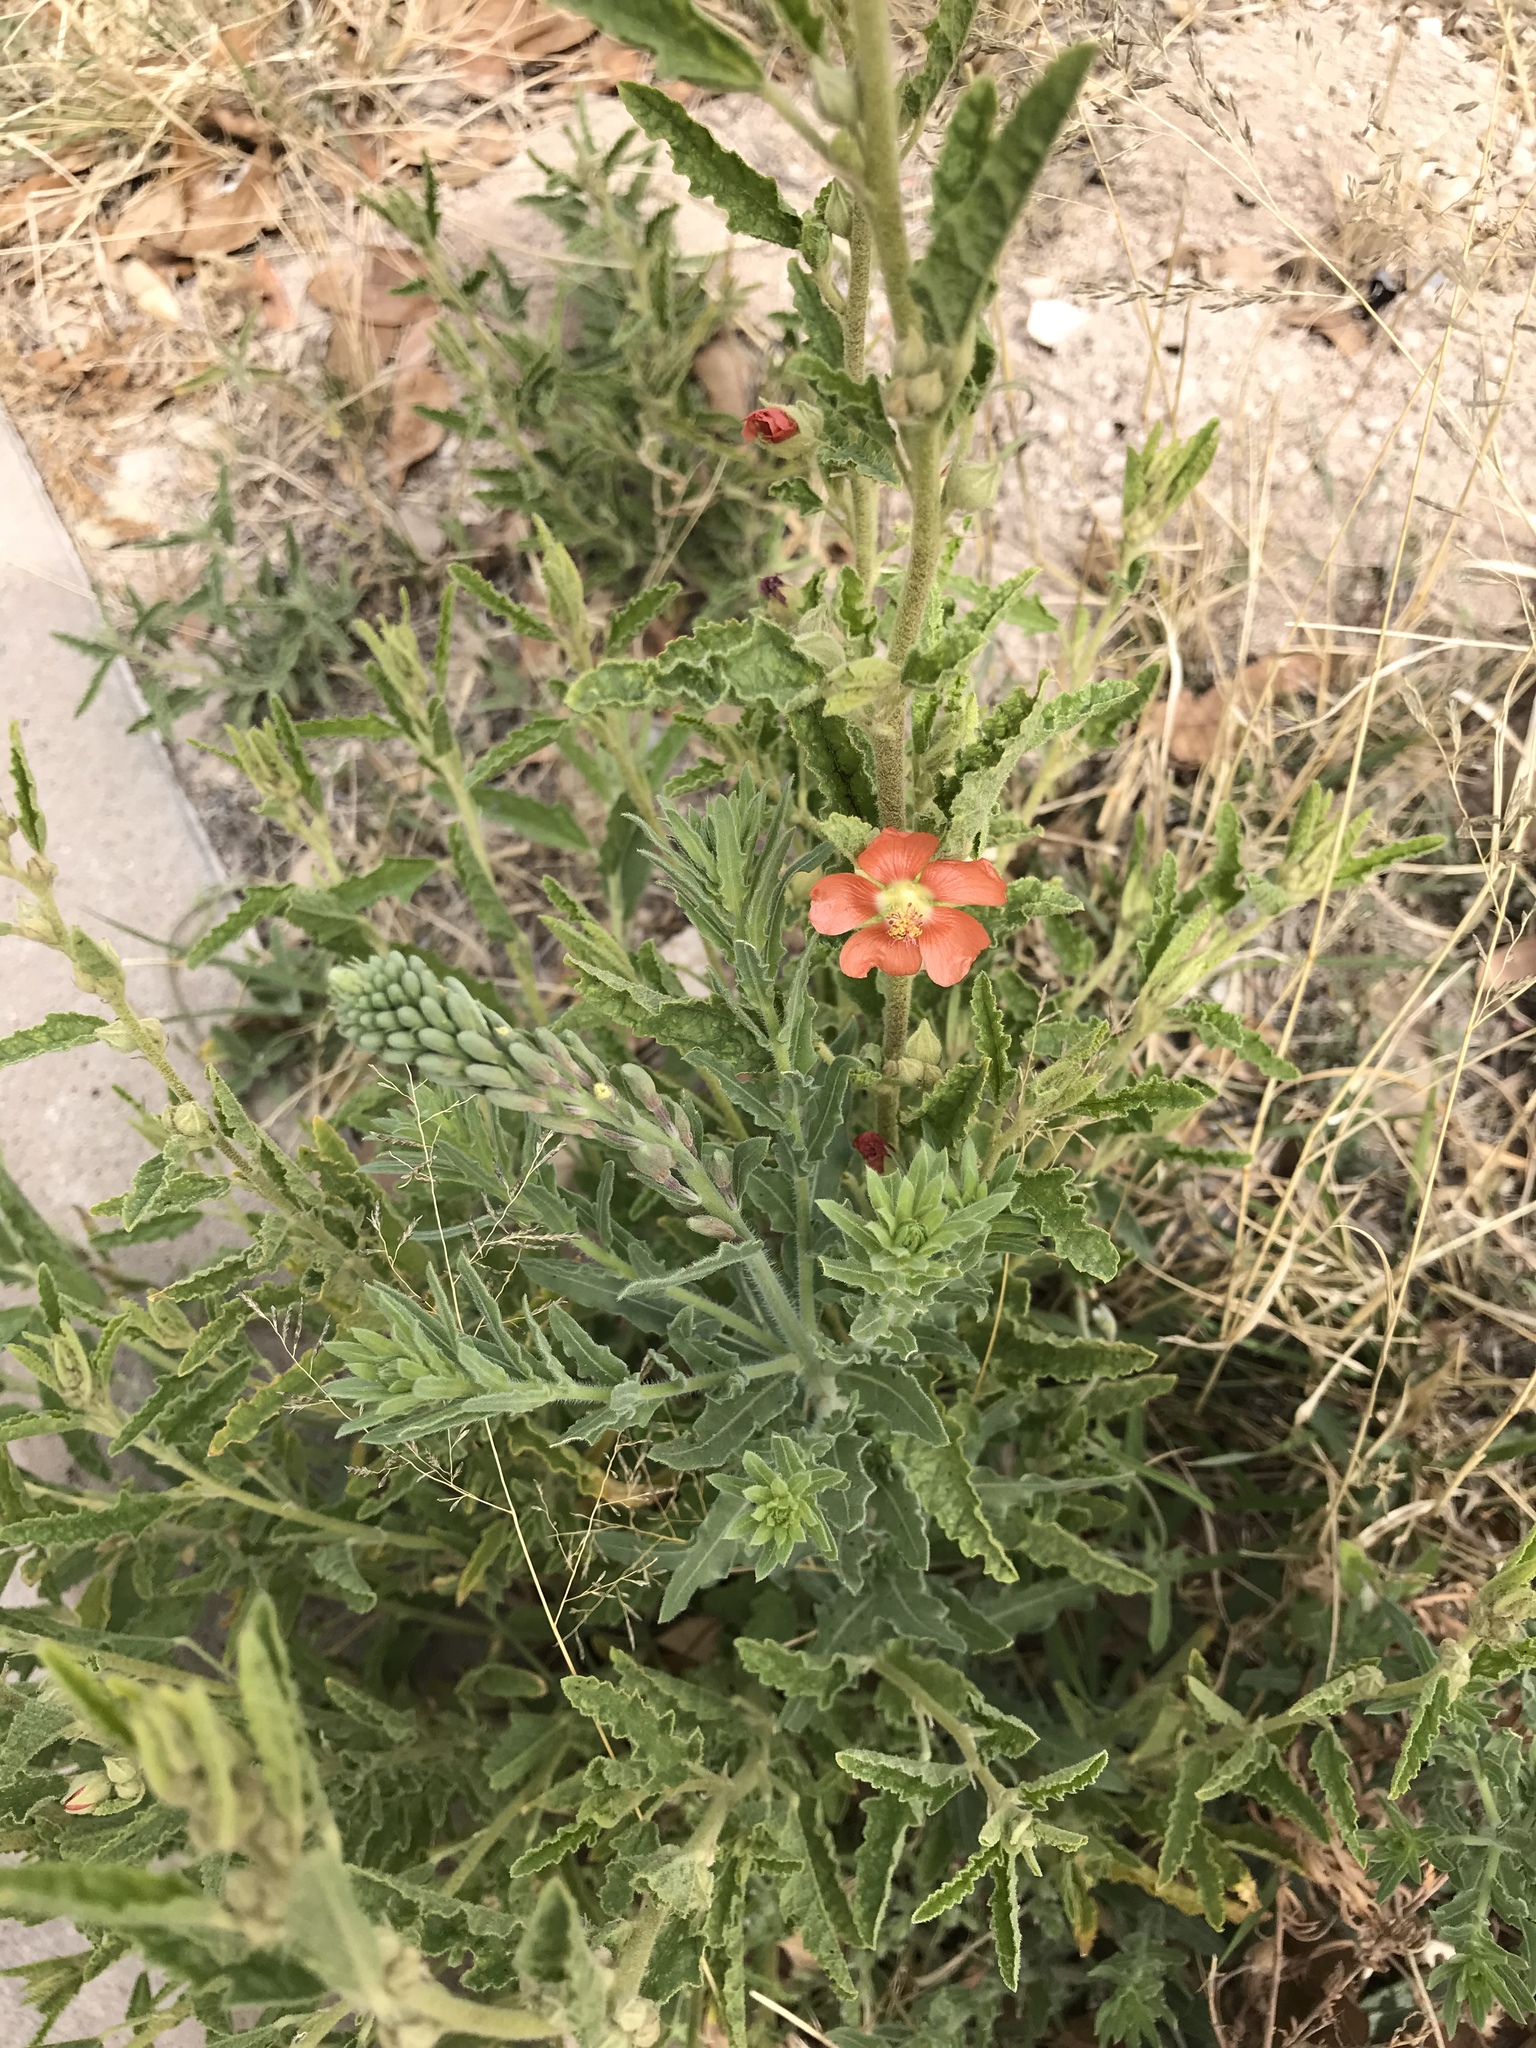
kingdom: Plantae
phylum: Tracheophyta
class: Magnoliopsida
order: Malvales
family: Malvaceae
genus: Sphaeralcea
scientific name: Sphaeralcea hastulata
